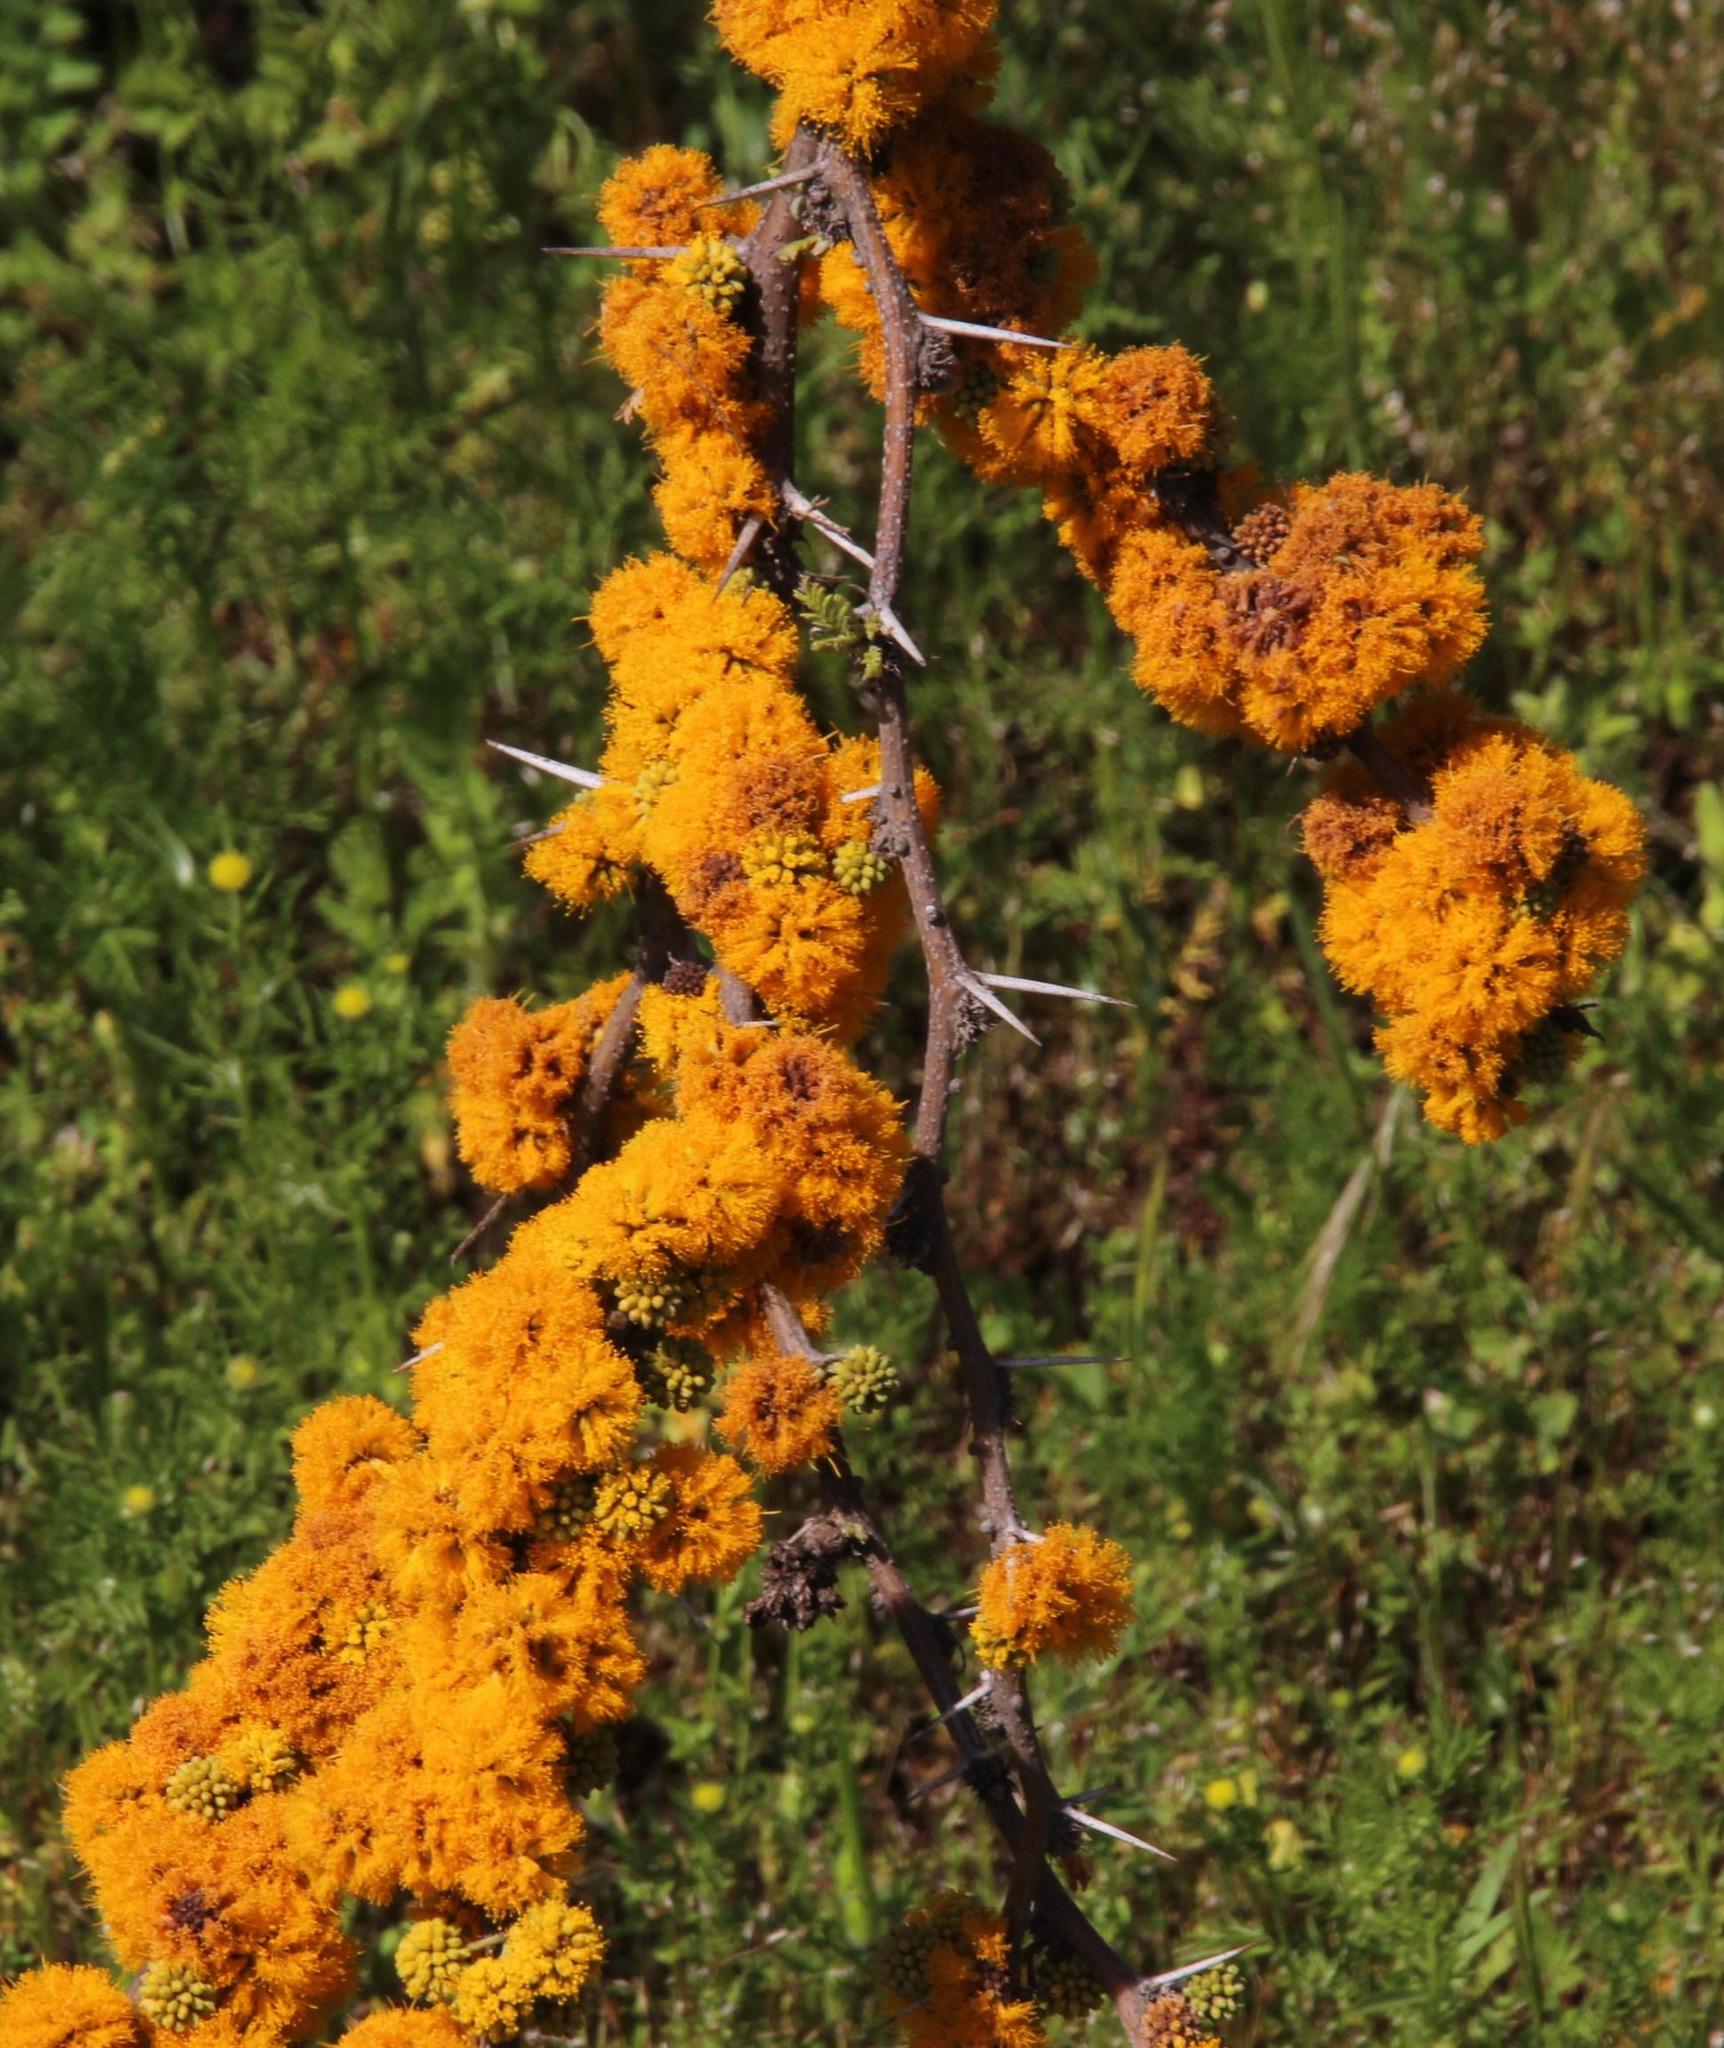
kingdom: Plantae
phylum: Tracheophyta
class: Magnoliopsida
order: Fabales
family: Fabaceae
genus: Vachellia
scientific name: Vachellia caven
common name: Roman cassie
